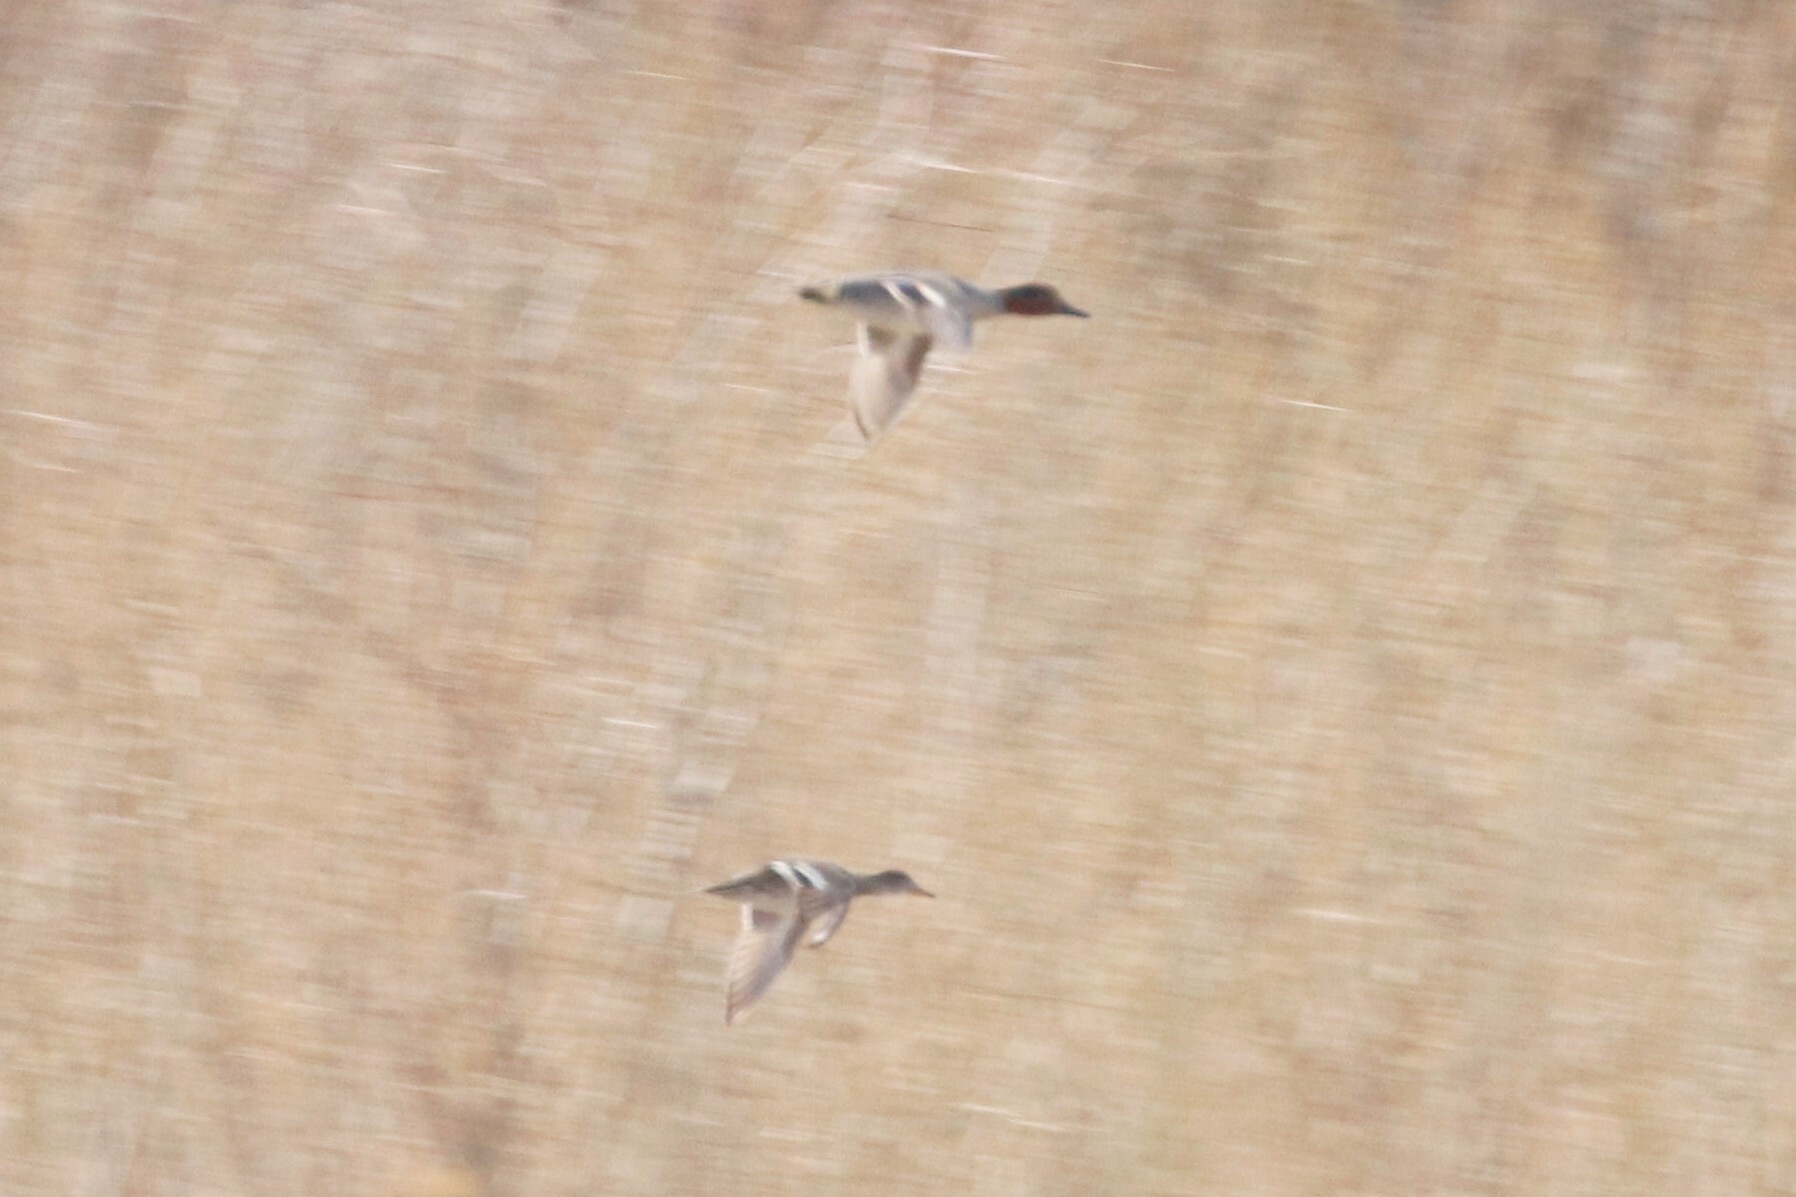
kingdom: Animalia
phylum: Chordata
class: Aves
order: Anseriformes
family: Anatidae
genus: Anas
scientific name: Anas crecca
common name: Eurasian teal
